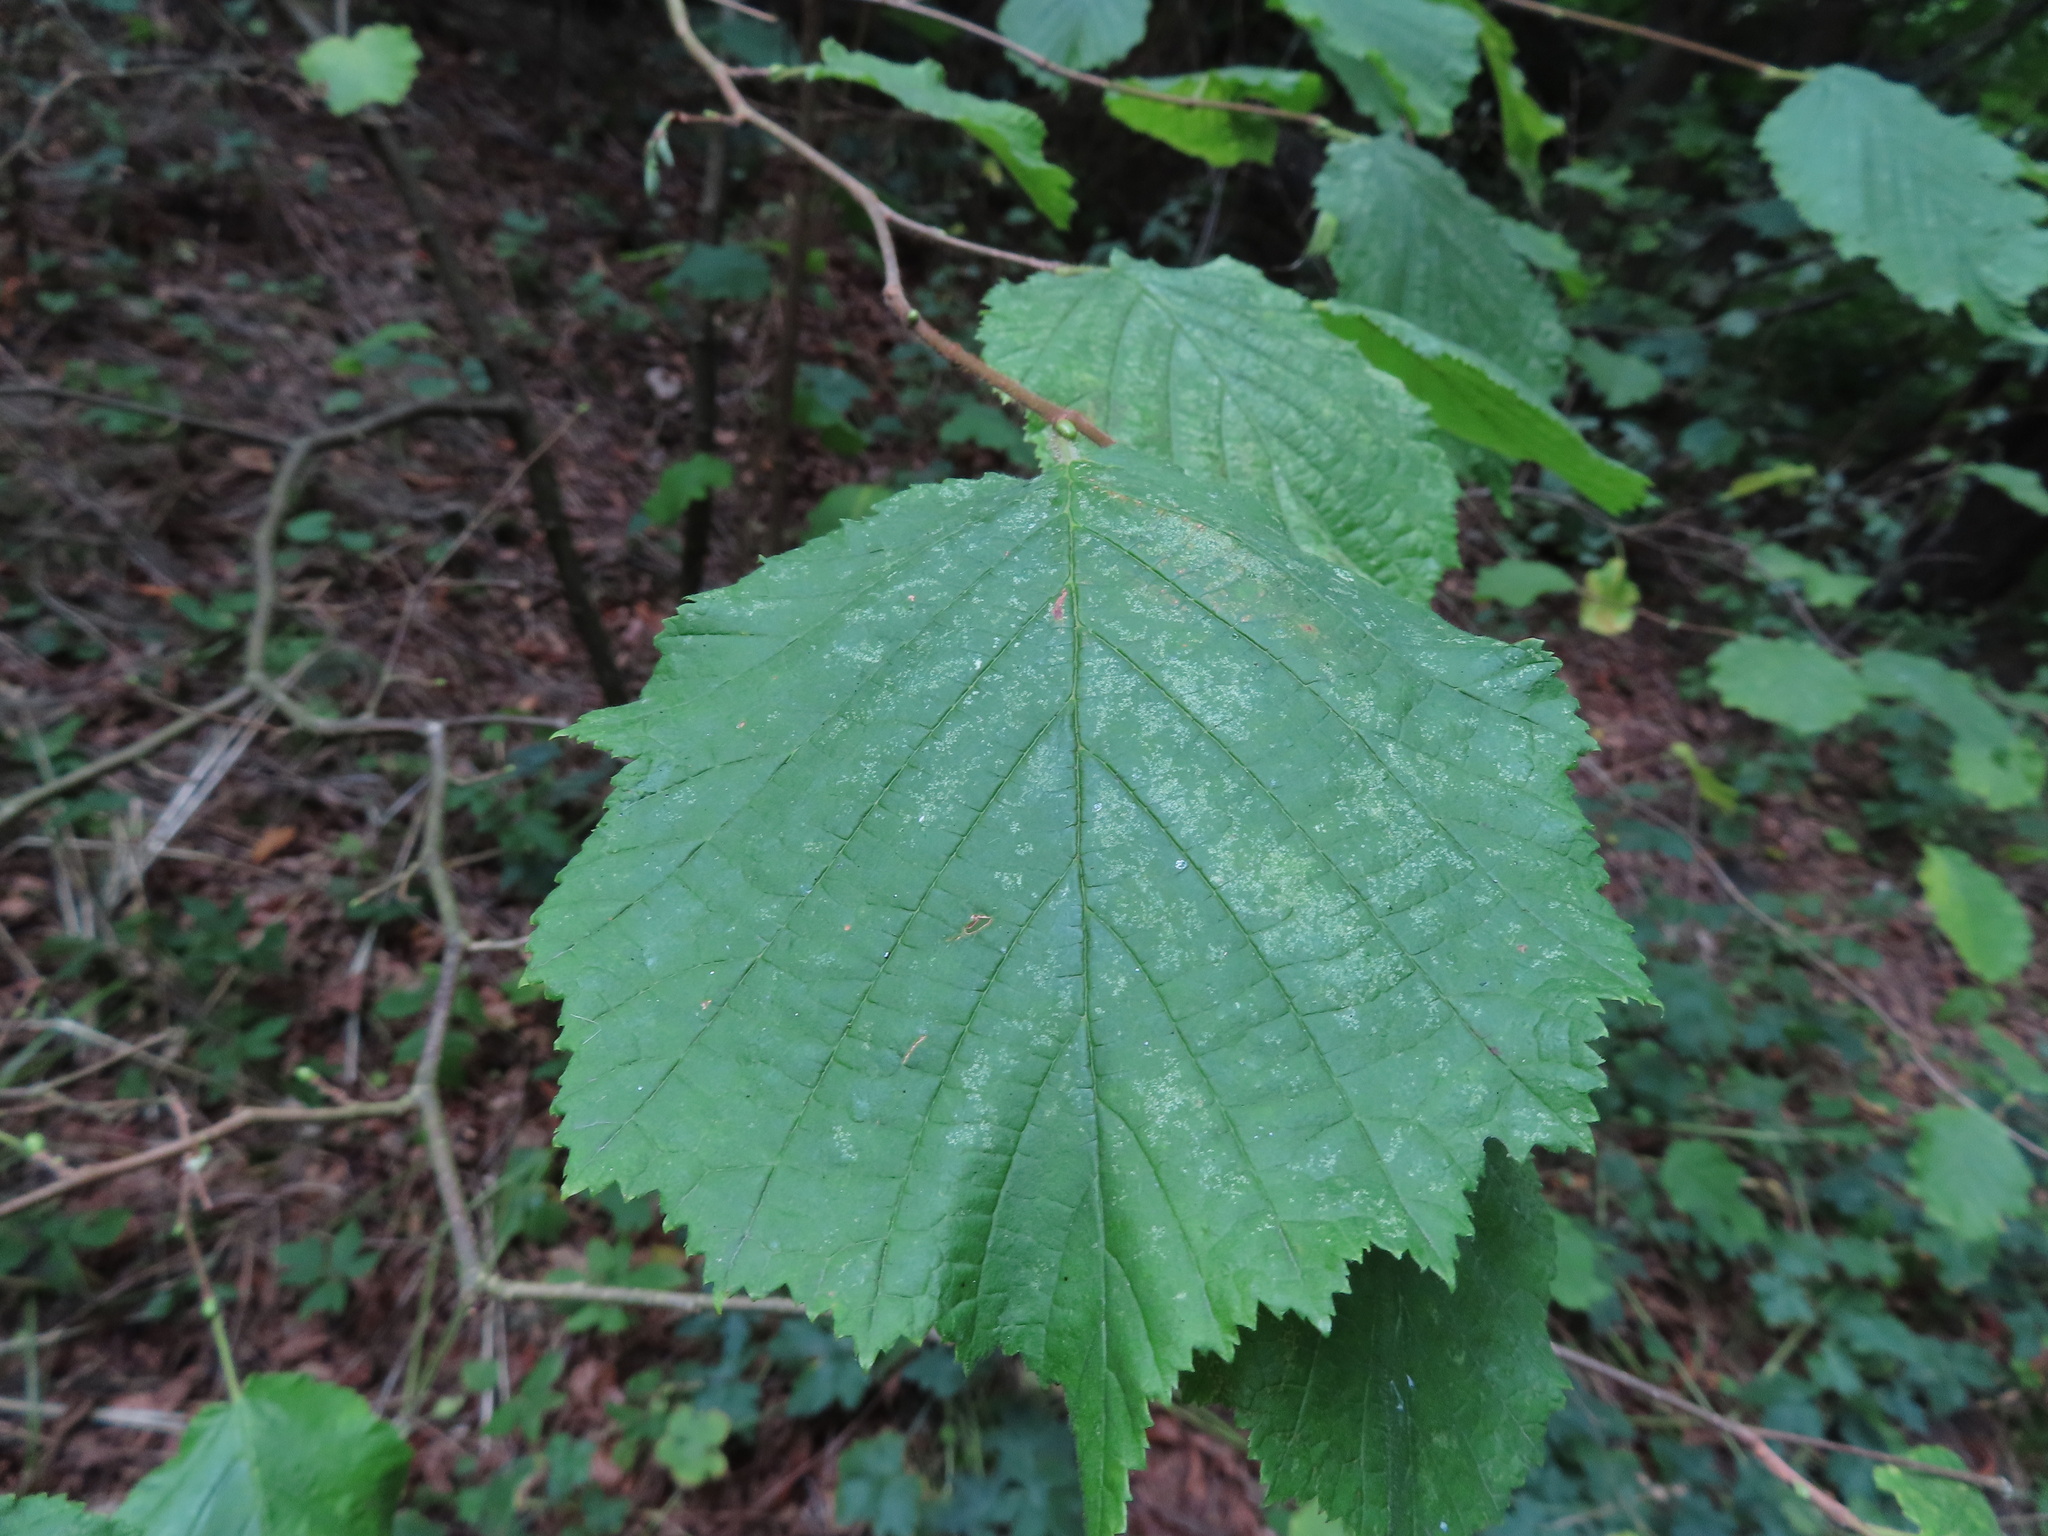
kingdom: Plantae
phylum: Tracheophyta
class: Magnoliopsida
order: Fagales
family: Betulaceae
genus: Corylus
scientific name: Corylus avellana
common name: European hazel
